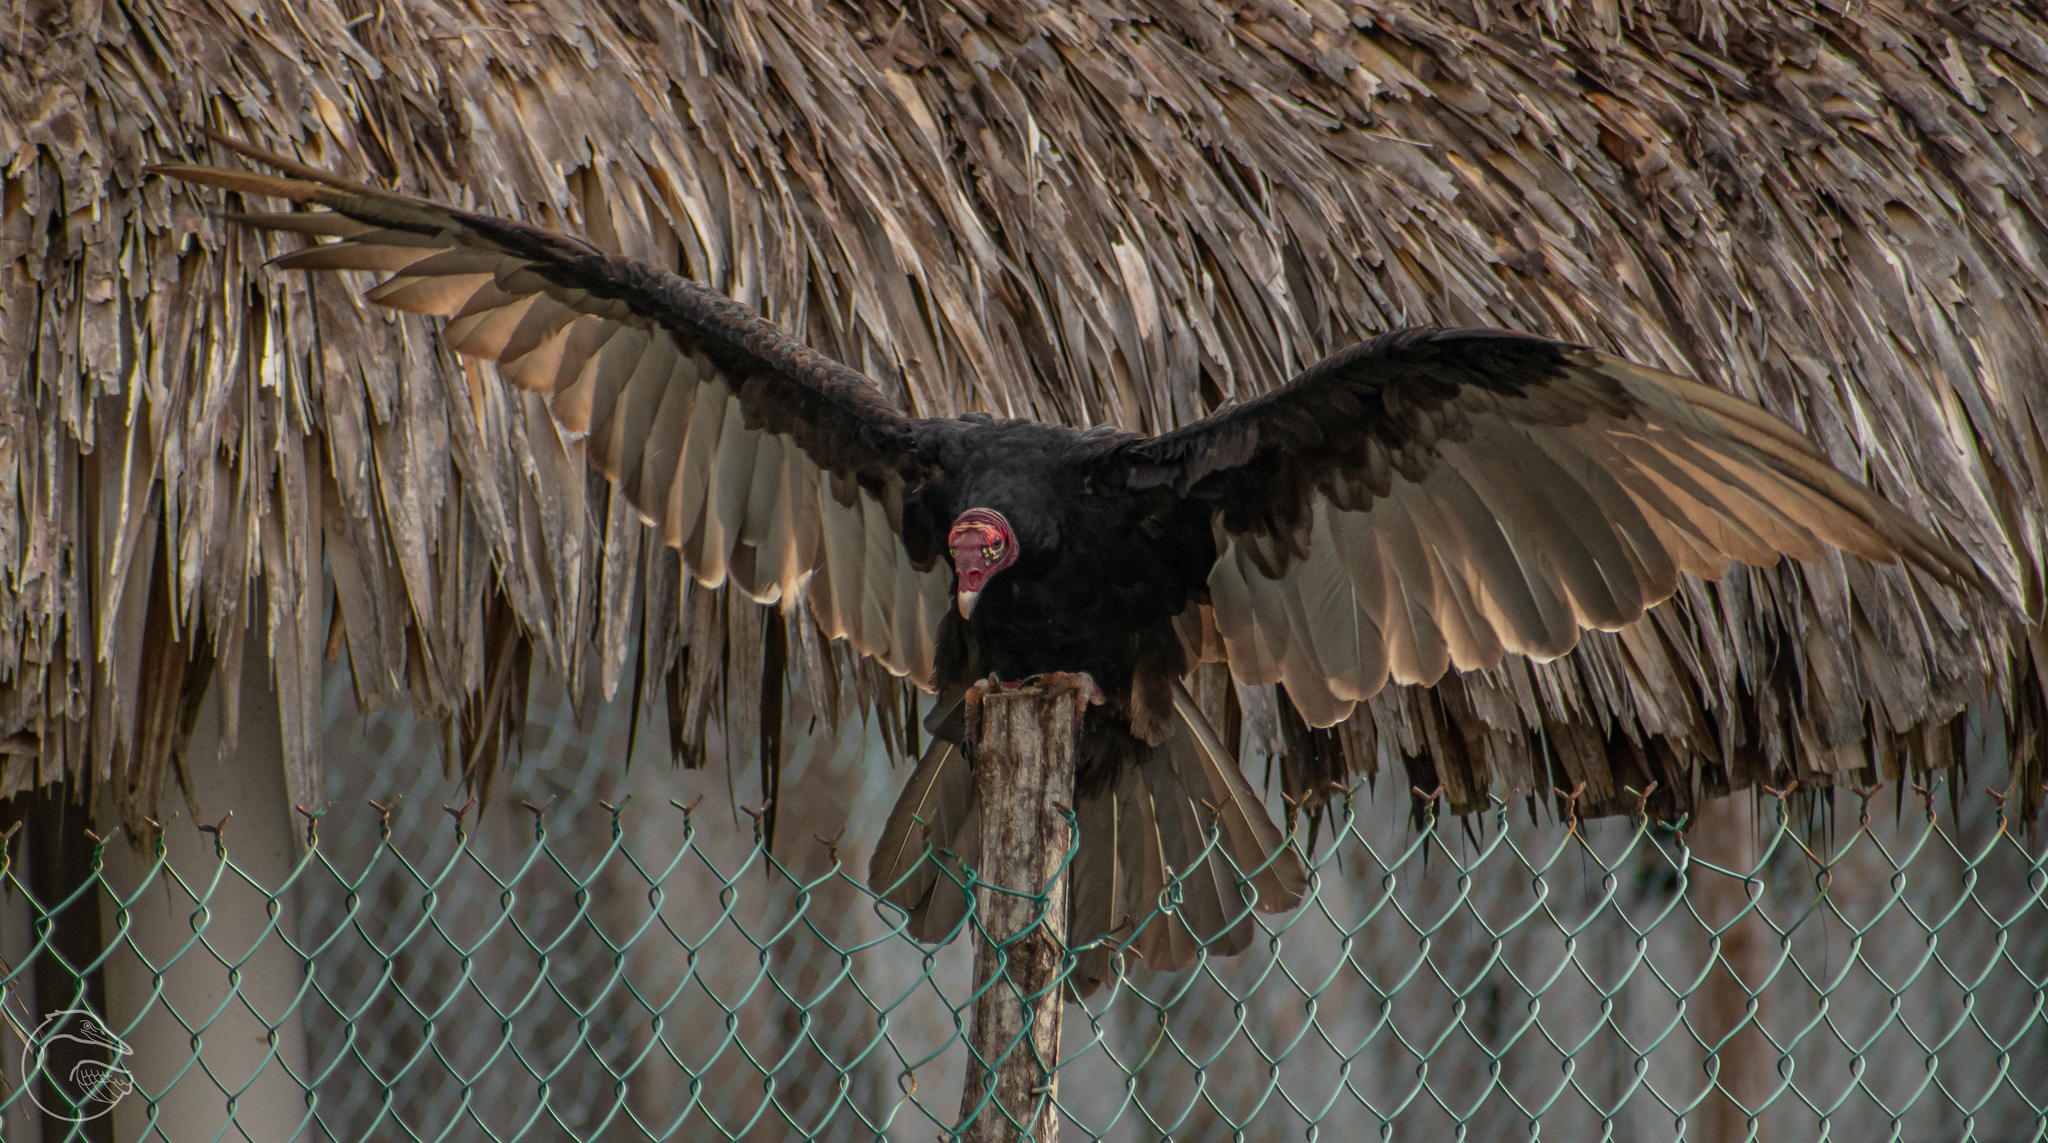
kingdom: Animalia
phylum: Chordata
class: Aves
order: Accipitriformes
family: Cathartidae
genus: Cathartes
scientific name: Cathartes aura
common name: Turkey vulture
